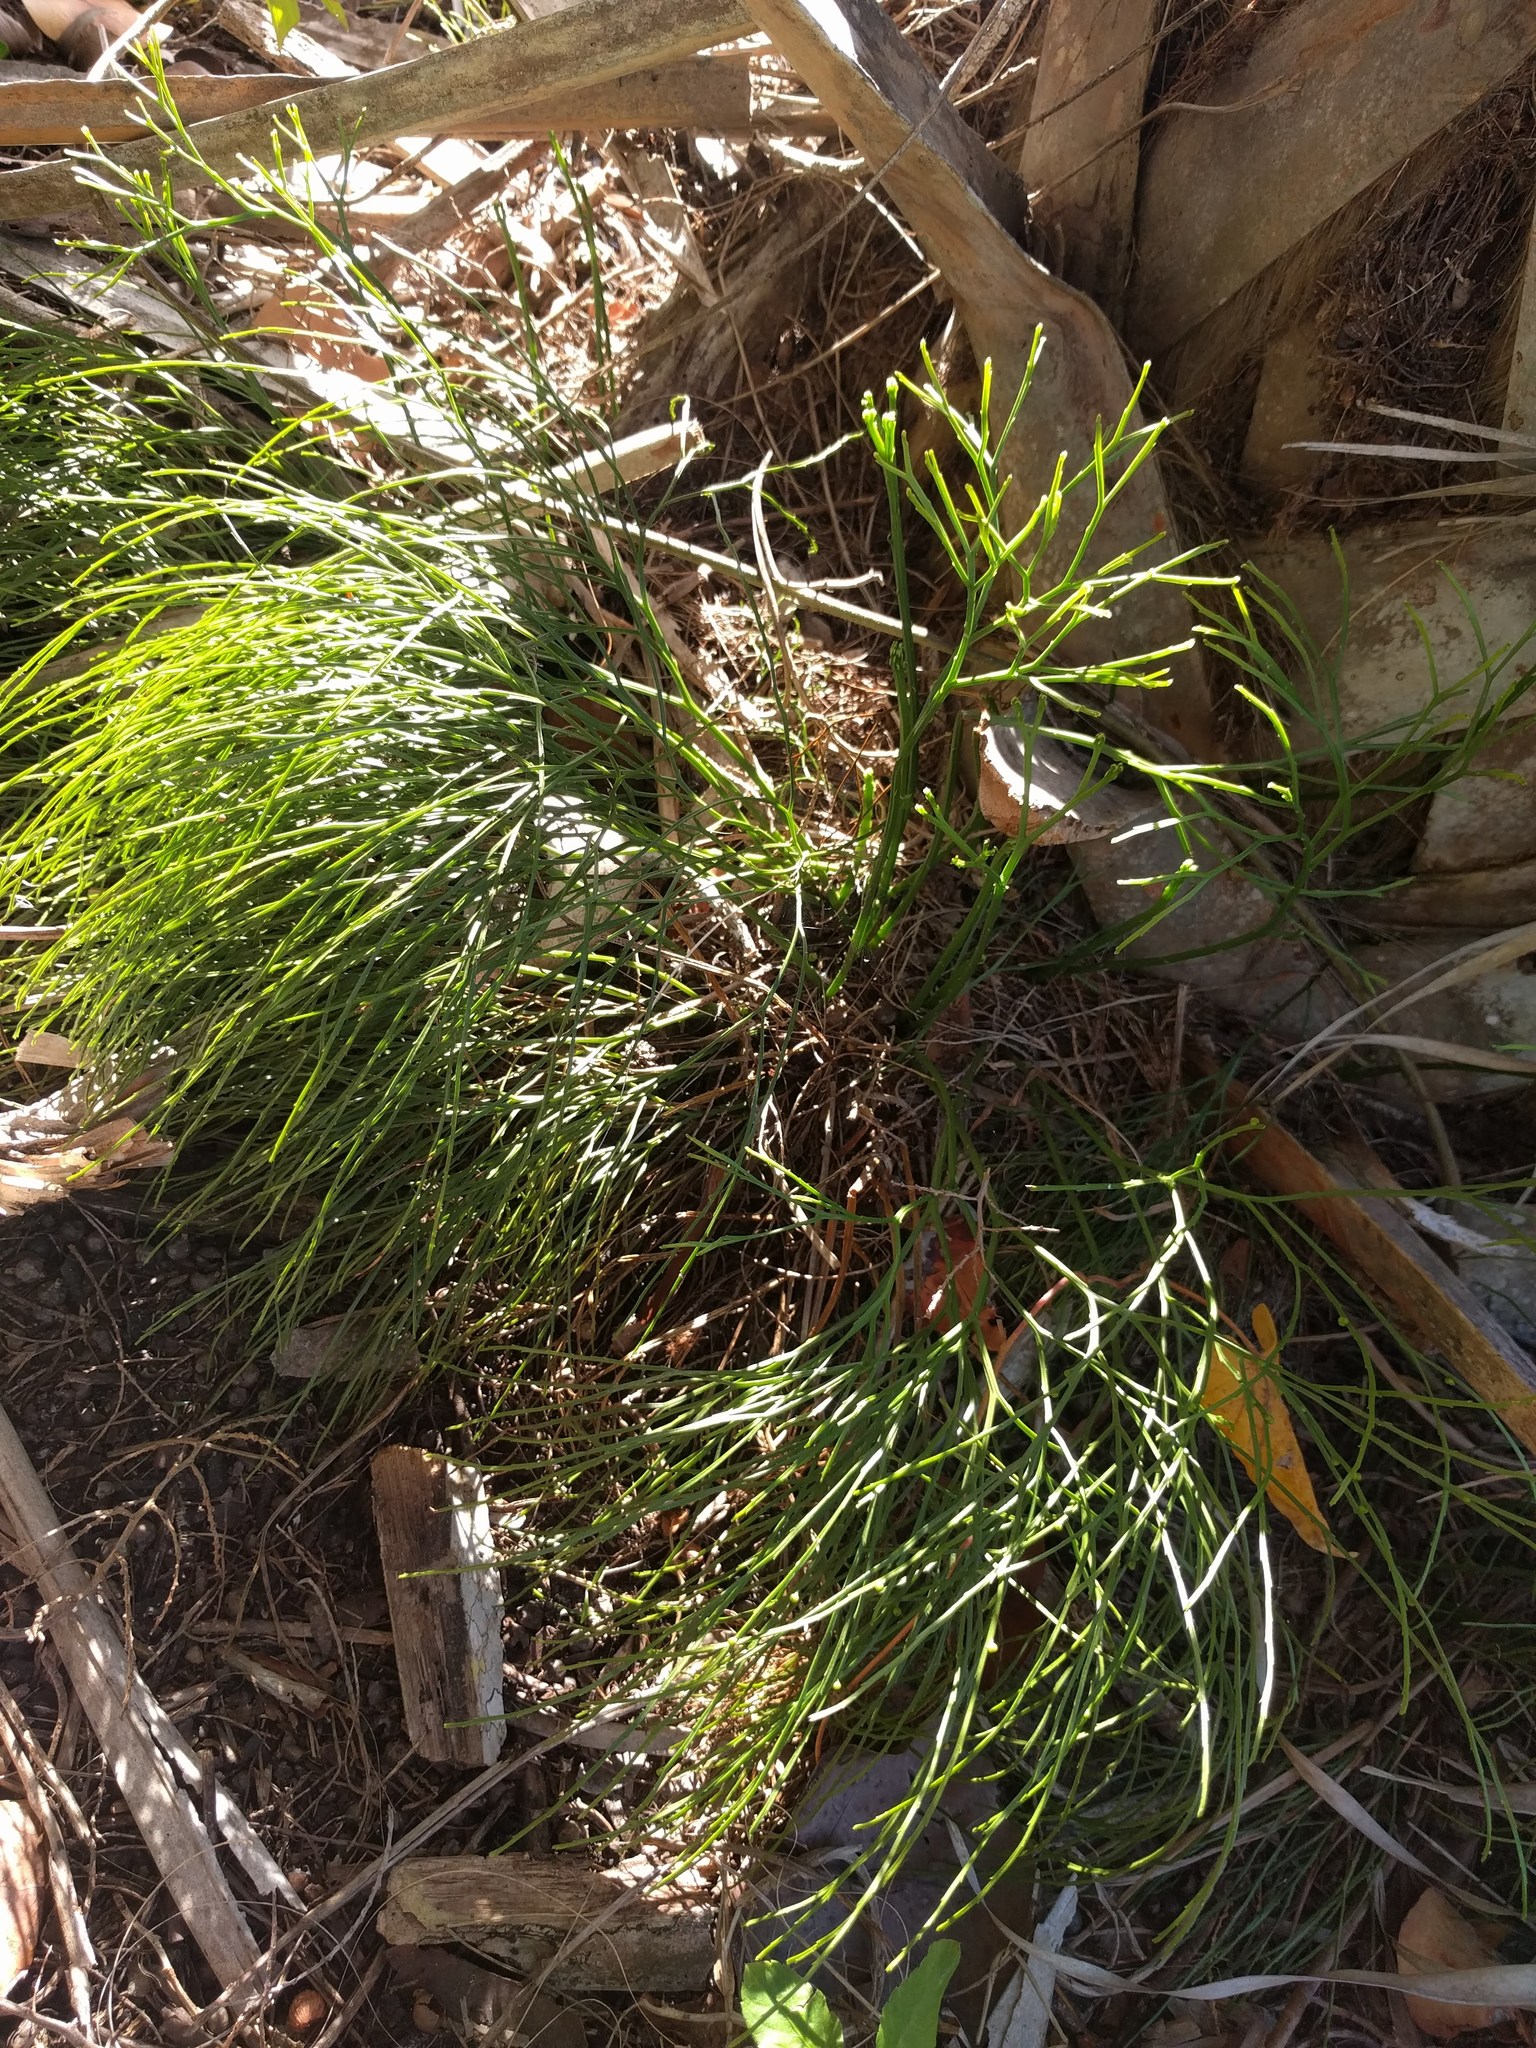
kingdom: Plantae
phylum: Tracheophyta
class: Polypodiopsida
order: Psilotales
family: Psilotaceae
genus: Psilotum
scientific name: Psilotum nudum
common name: Skeleton fork fern
